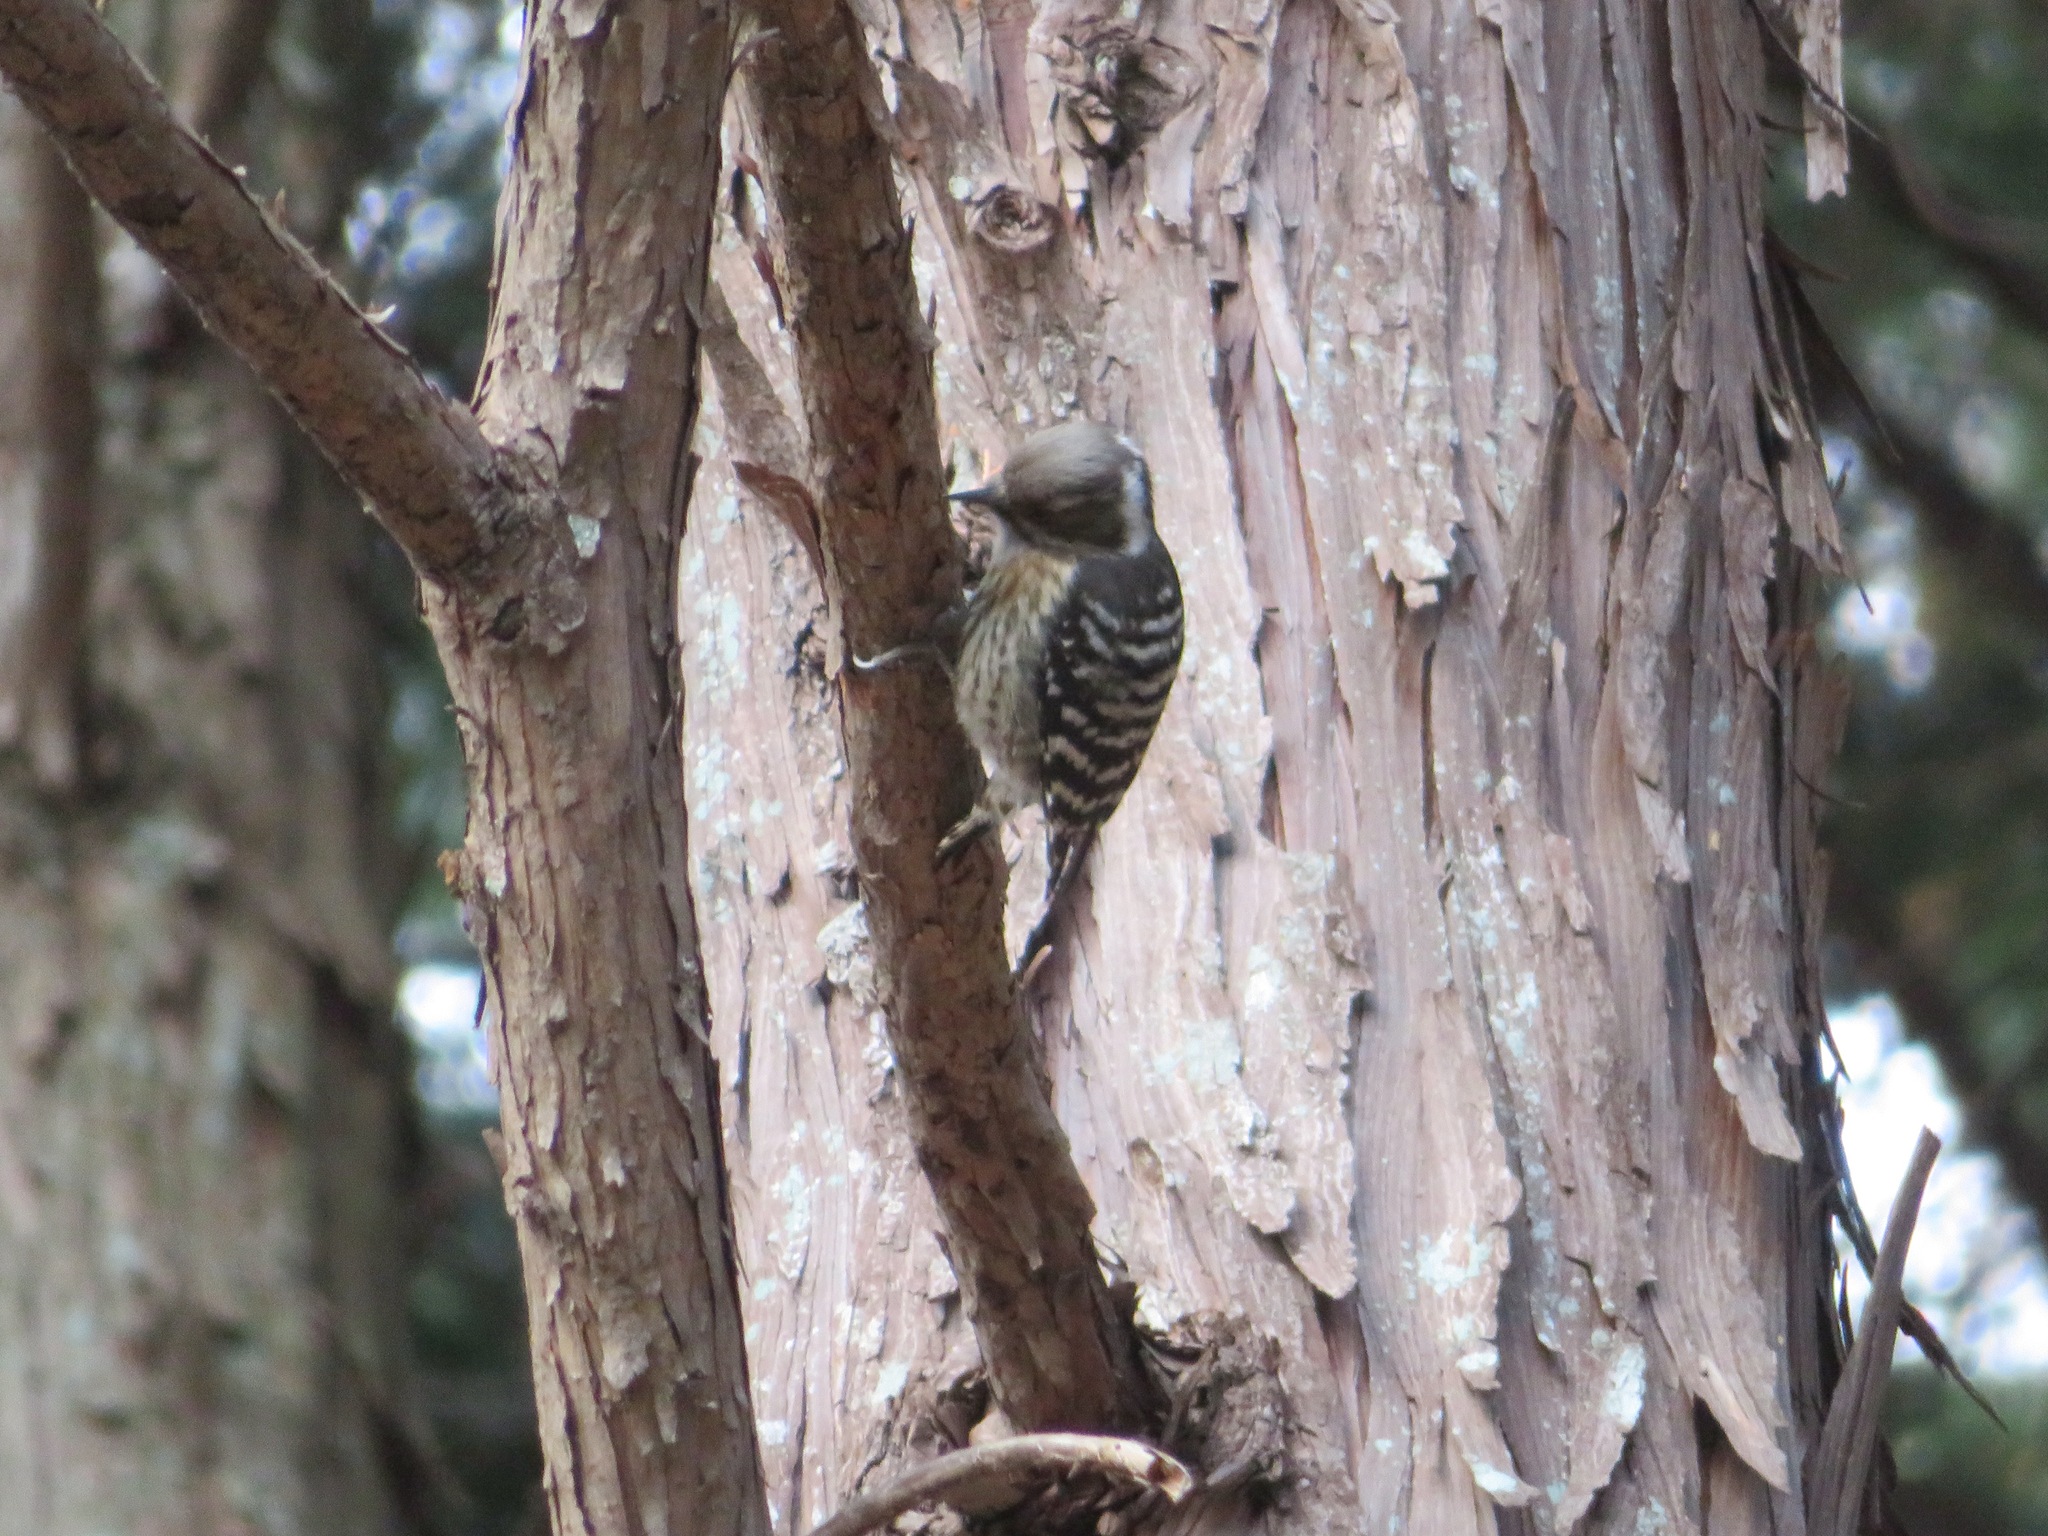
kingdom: Animalia
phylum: Chordata
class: Aves
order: Piciformes
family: Picidae
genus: Yungipicus
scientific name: Yungipicus kizuki
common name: Japanese pygmy woodpecker
